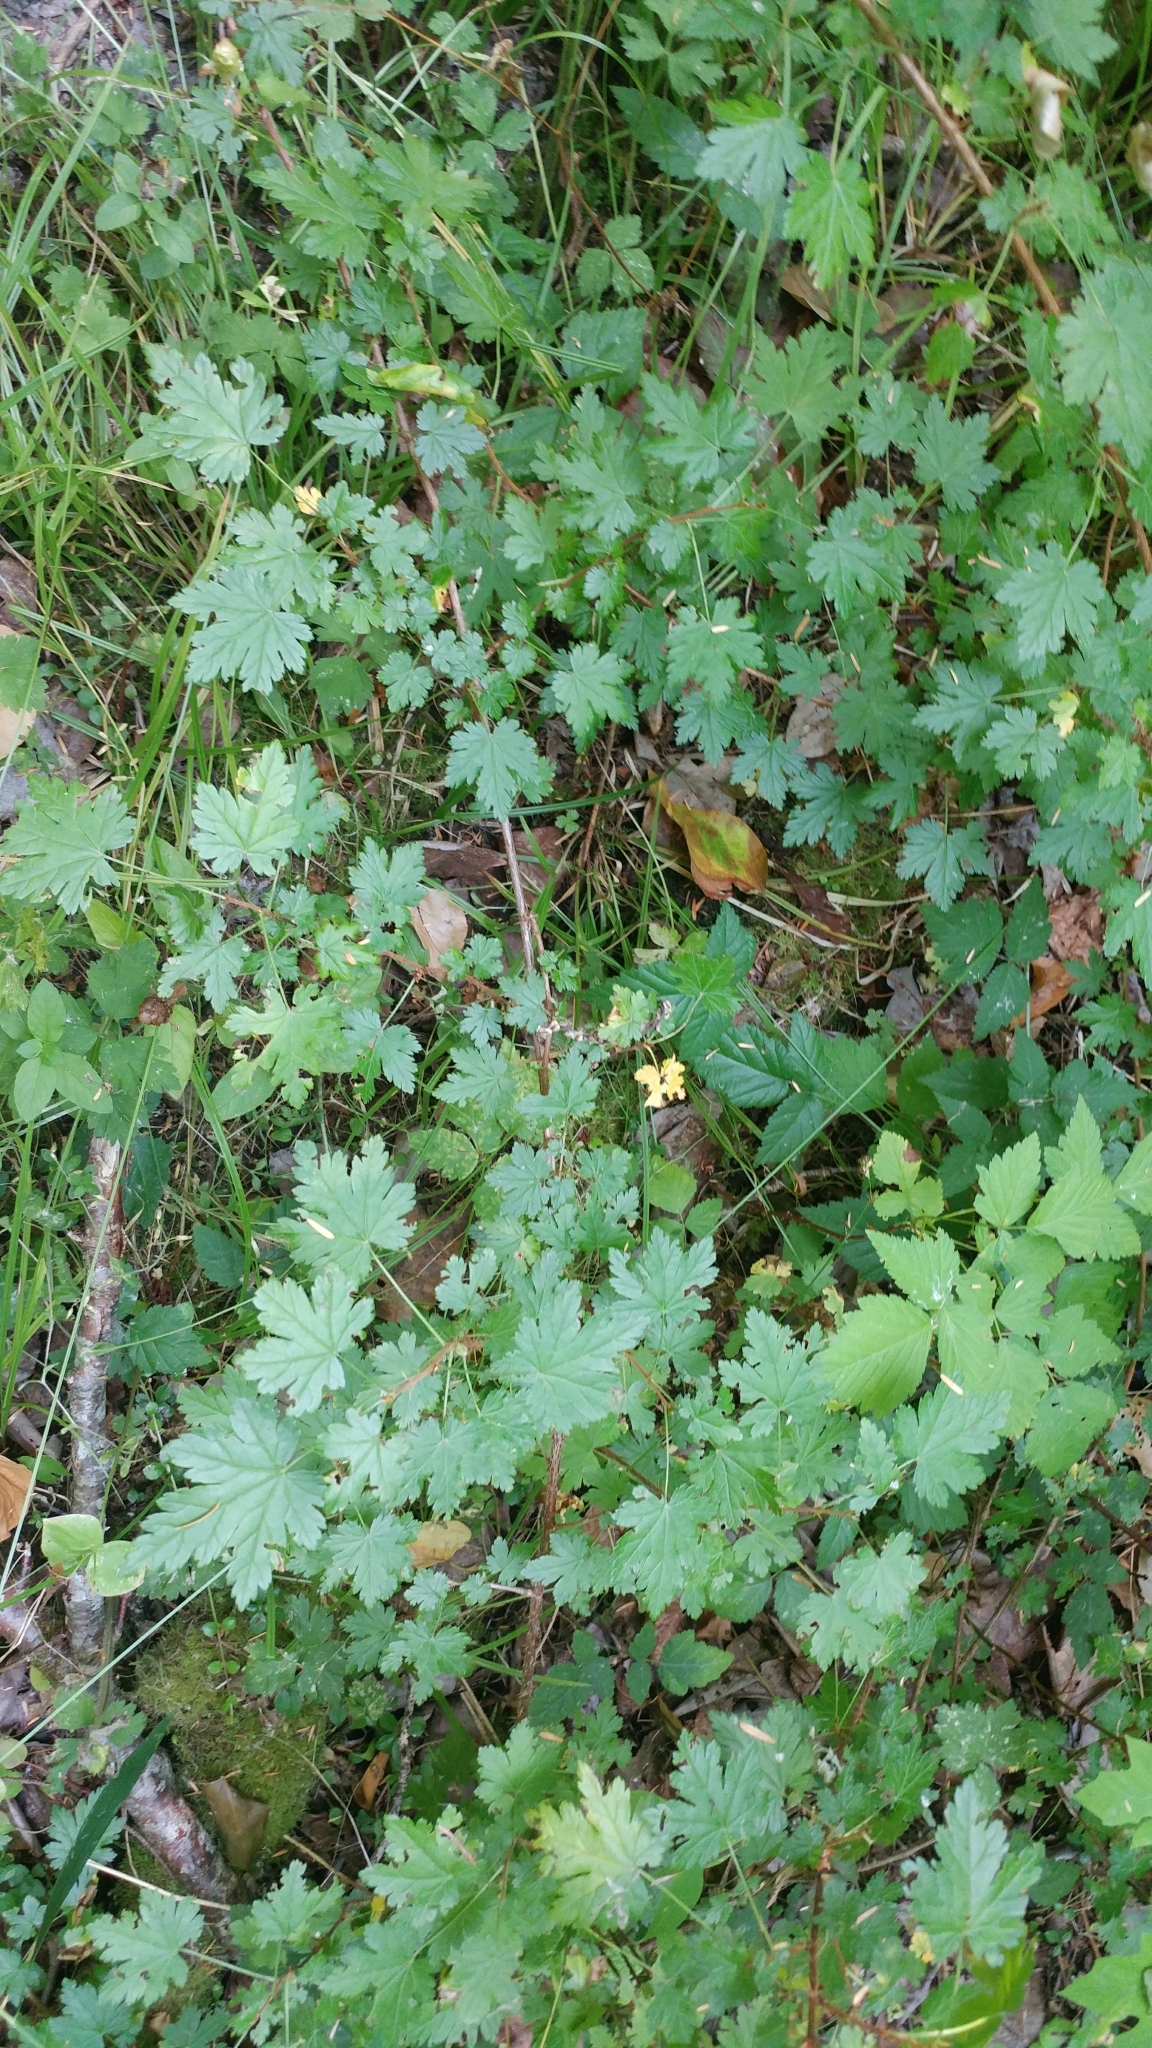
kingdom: Plantae
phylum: Tracheophyta
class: Magnoliopsida
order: Saxifragales
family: Grossulariaceae
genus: Ribes
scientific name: Ribes lacustre
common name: Black gooseberry
